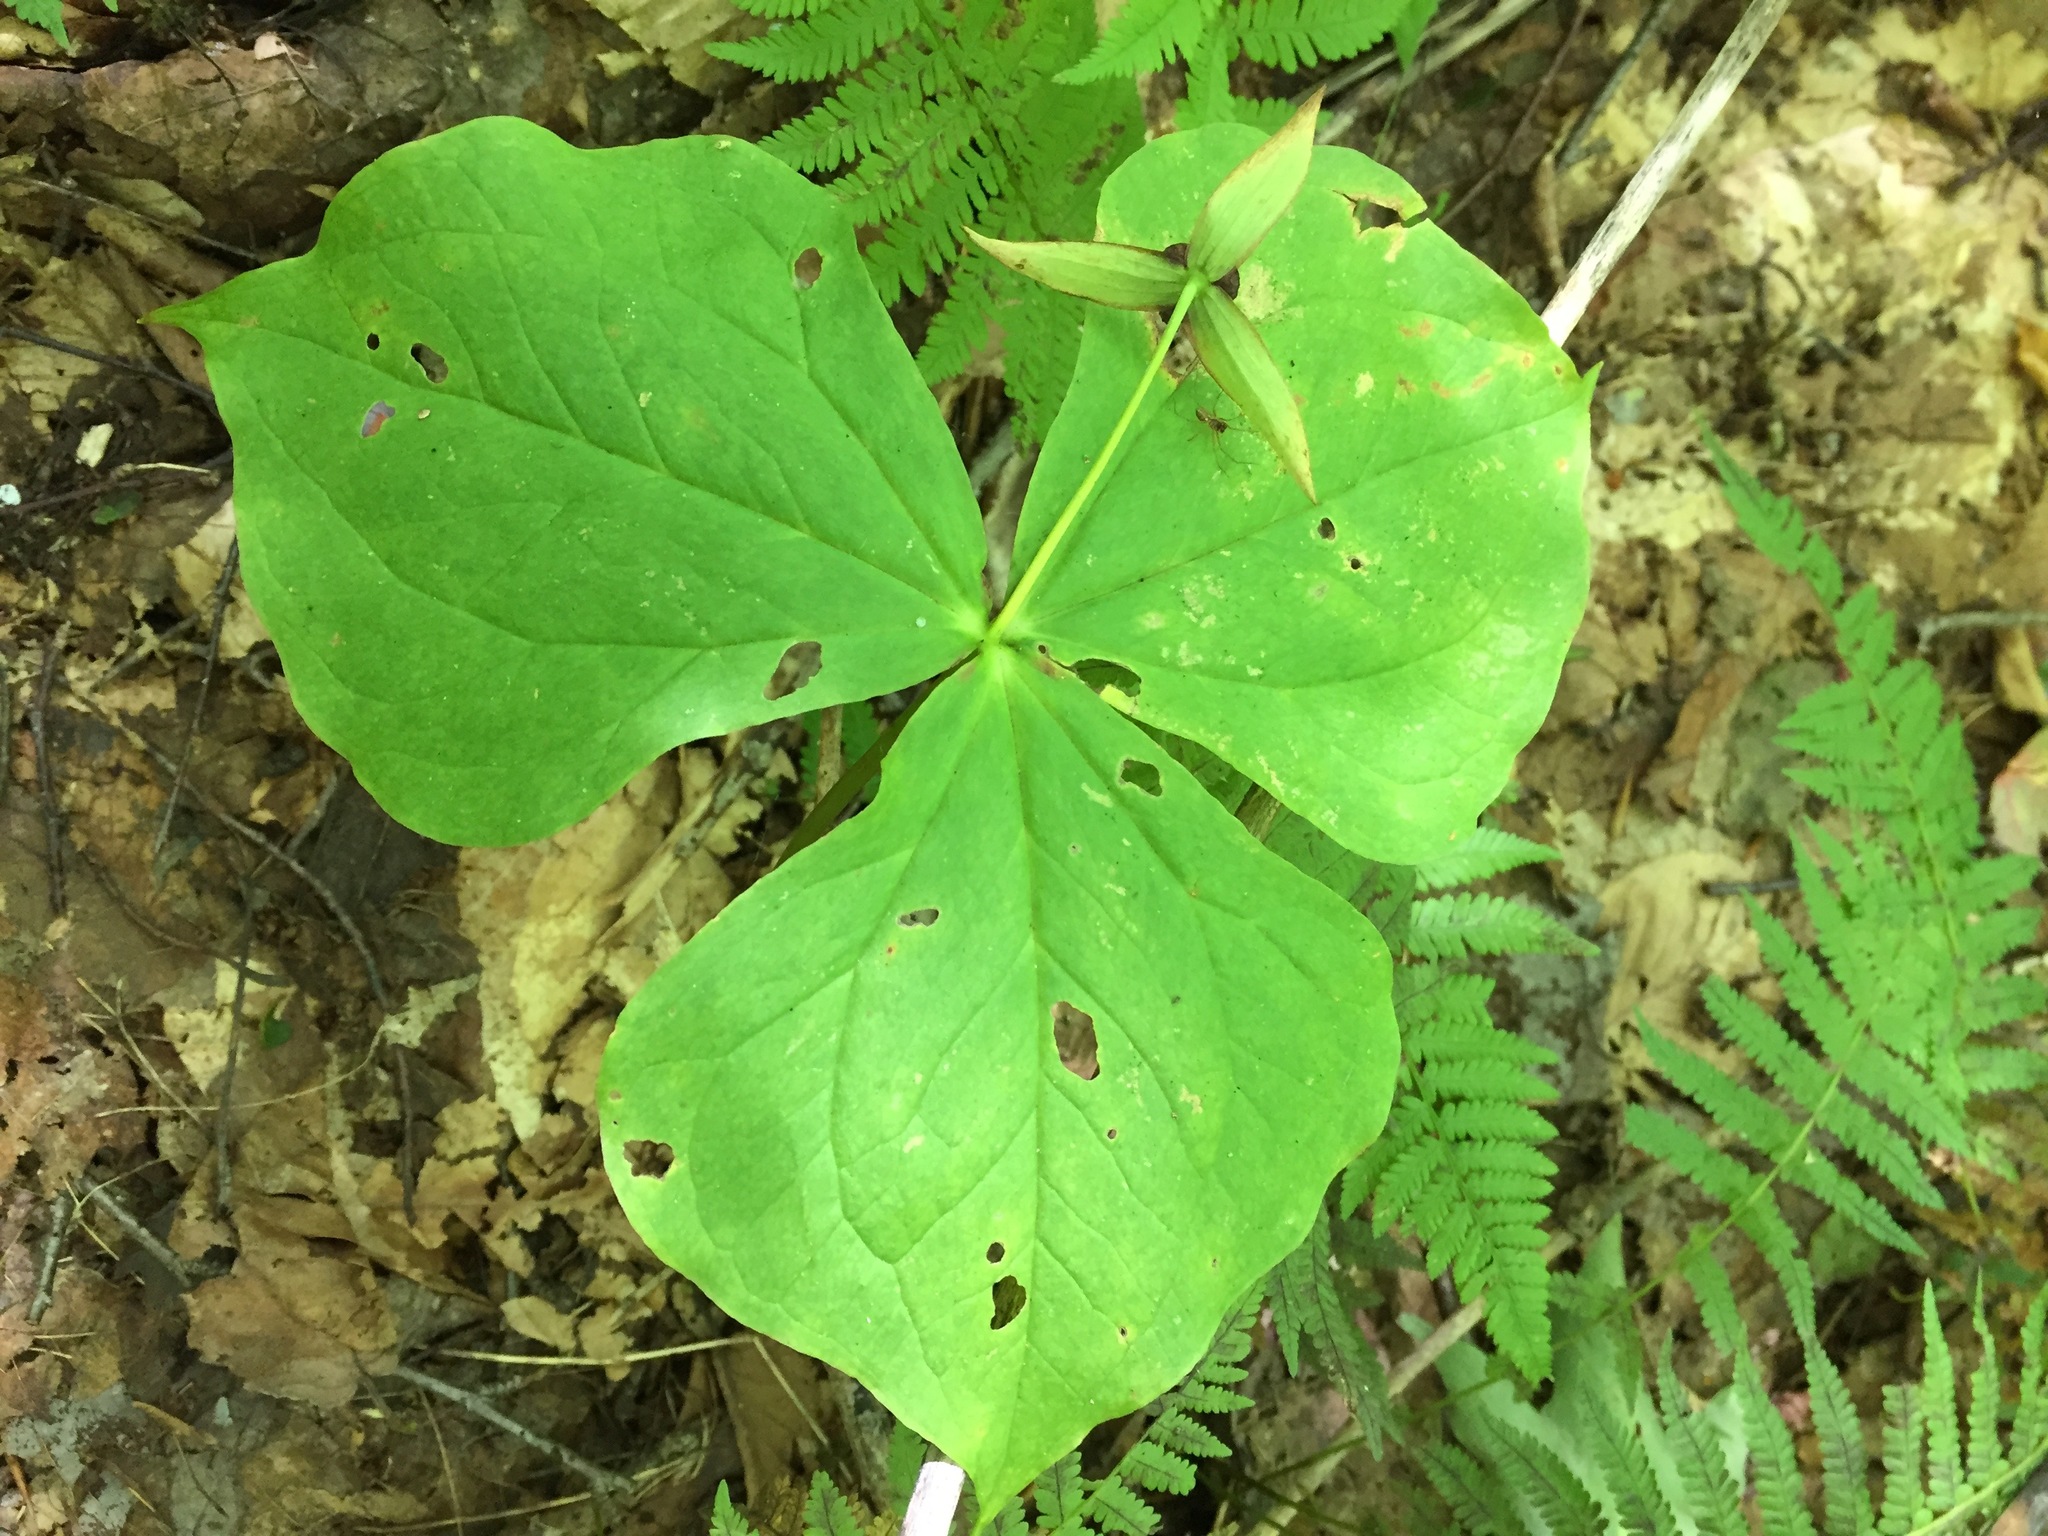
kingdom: Plantae
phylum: Tracheophyta
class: Liliopsida
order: Liliales
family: Melanthiaceae
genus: Trillium
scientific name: Trillium erectum
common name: Purple trillium
